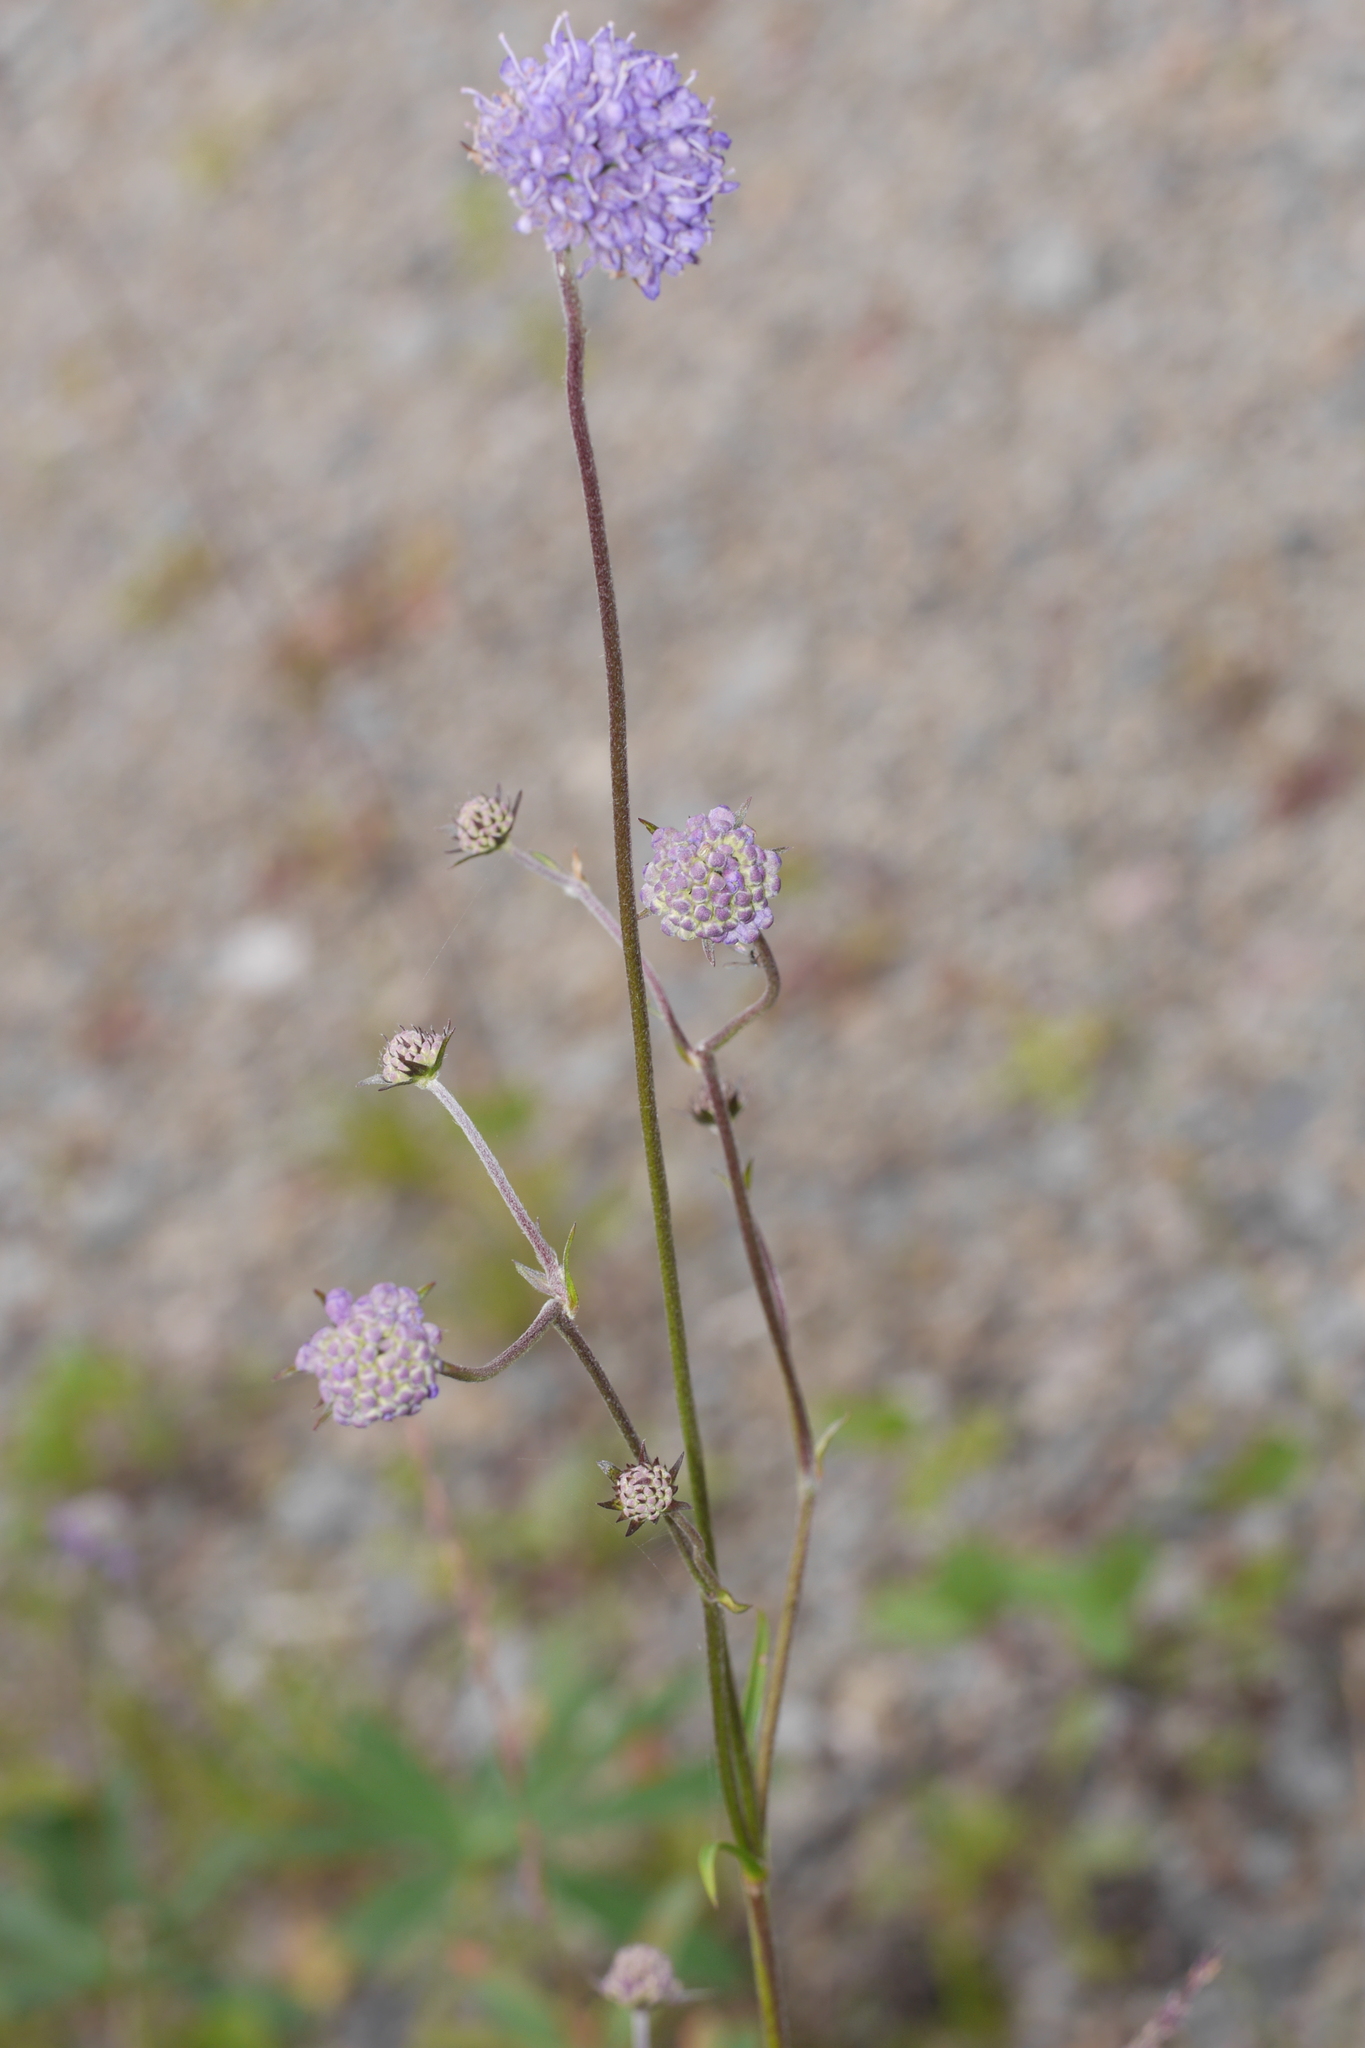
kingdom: Plantae
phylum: Tracheophyta
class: Magnoliopsida
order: Dipsacales
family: Caprifoliaceae
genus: Succisa
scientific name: Succisa pratensis
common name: Devil's-bit
